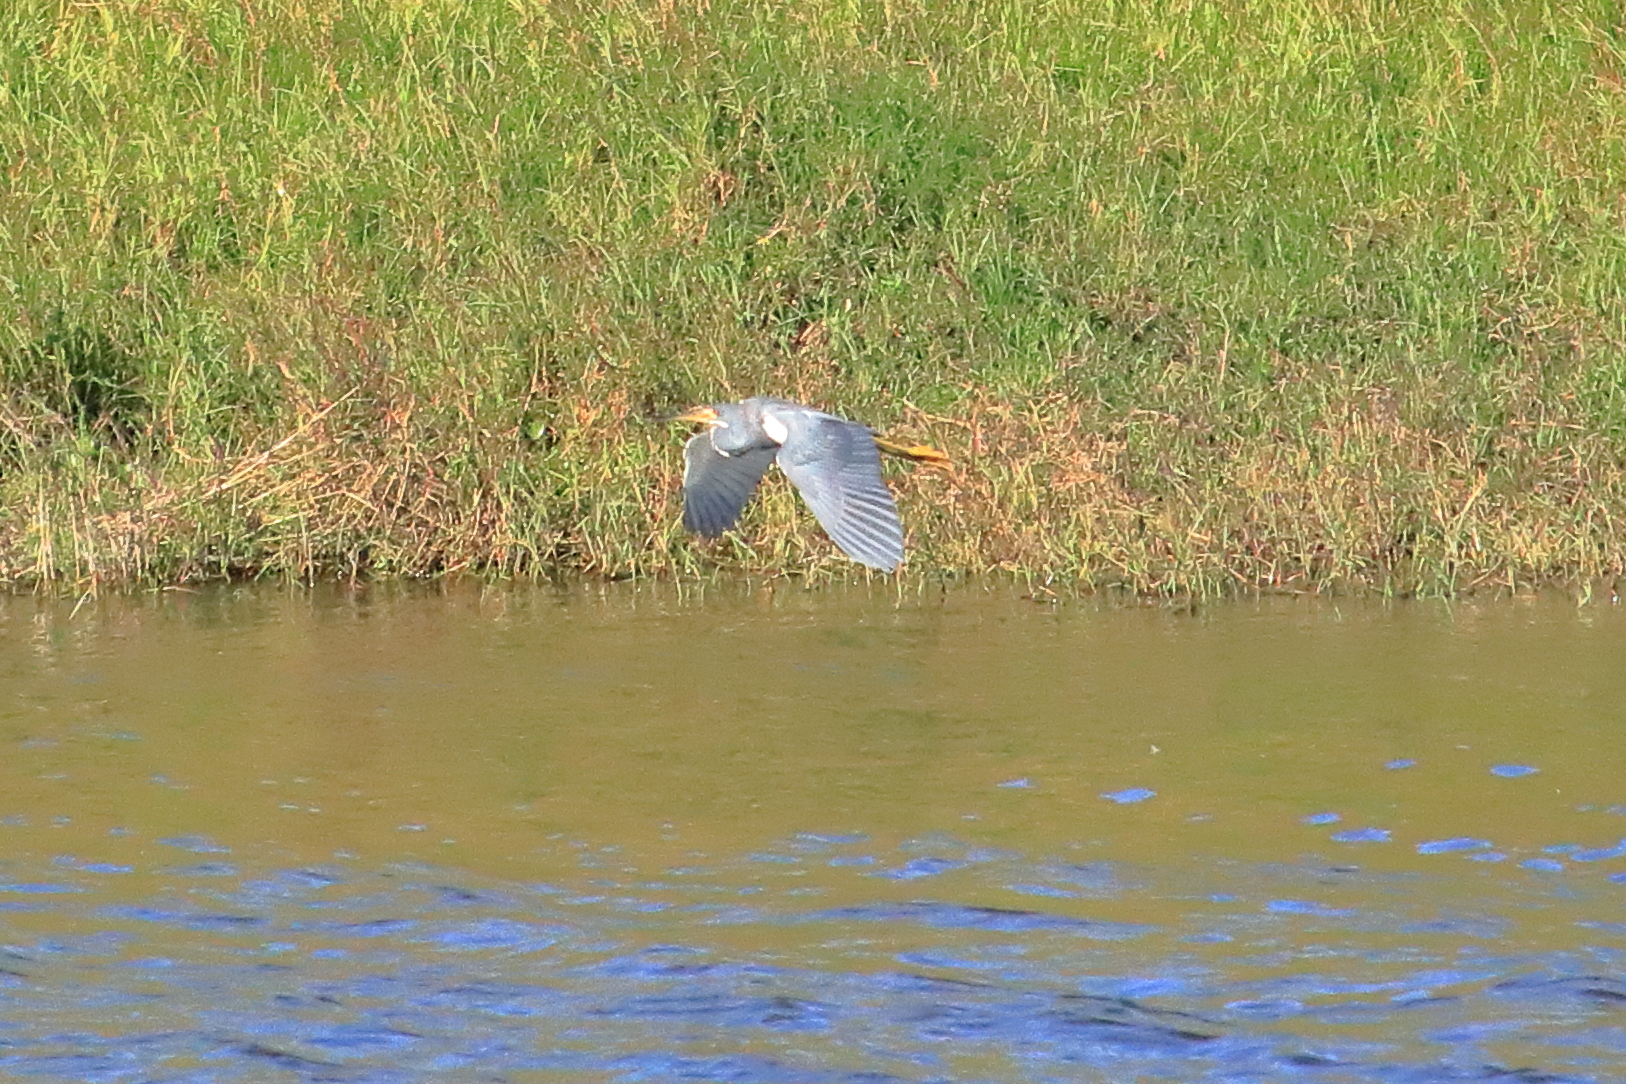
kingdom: Animalia
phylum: Chordata
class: Aves
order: Pelecaniformes
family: Ardeidae
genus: Egretta
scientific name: Egretta tricolor
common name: Tricolored heron
